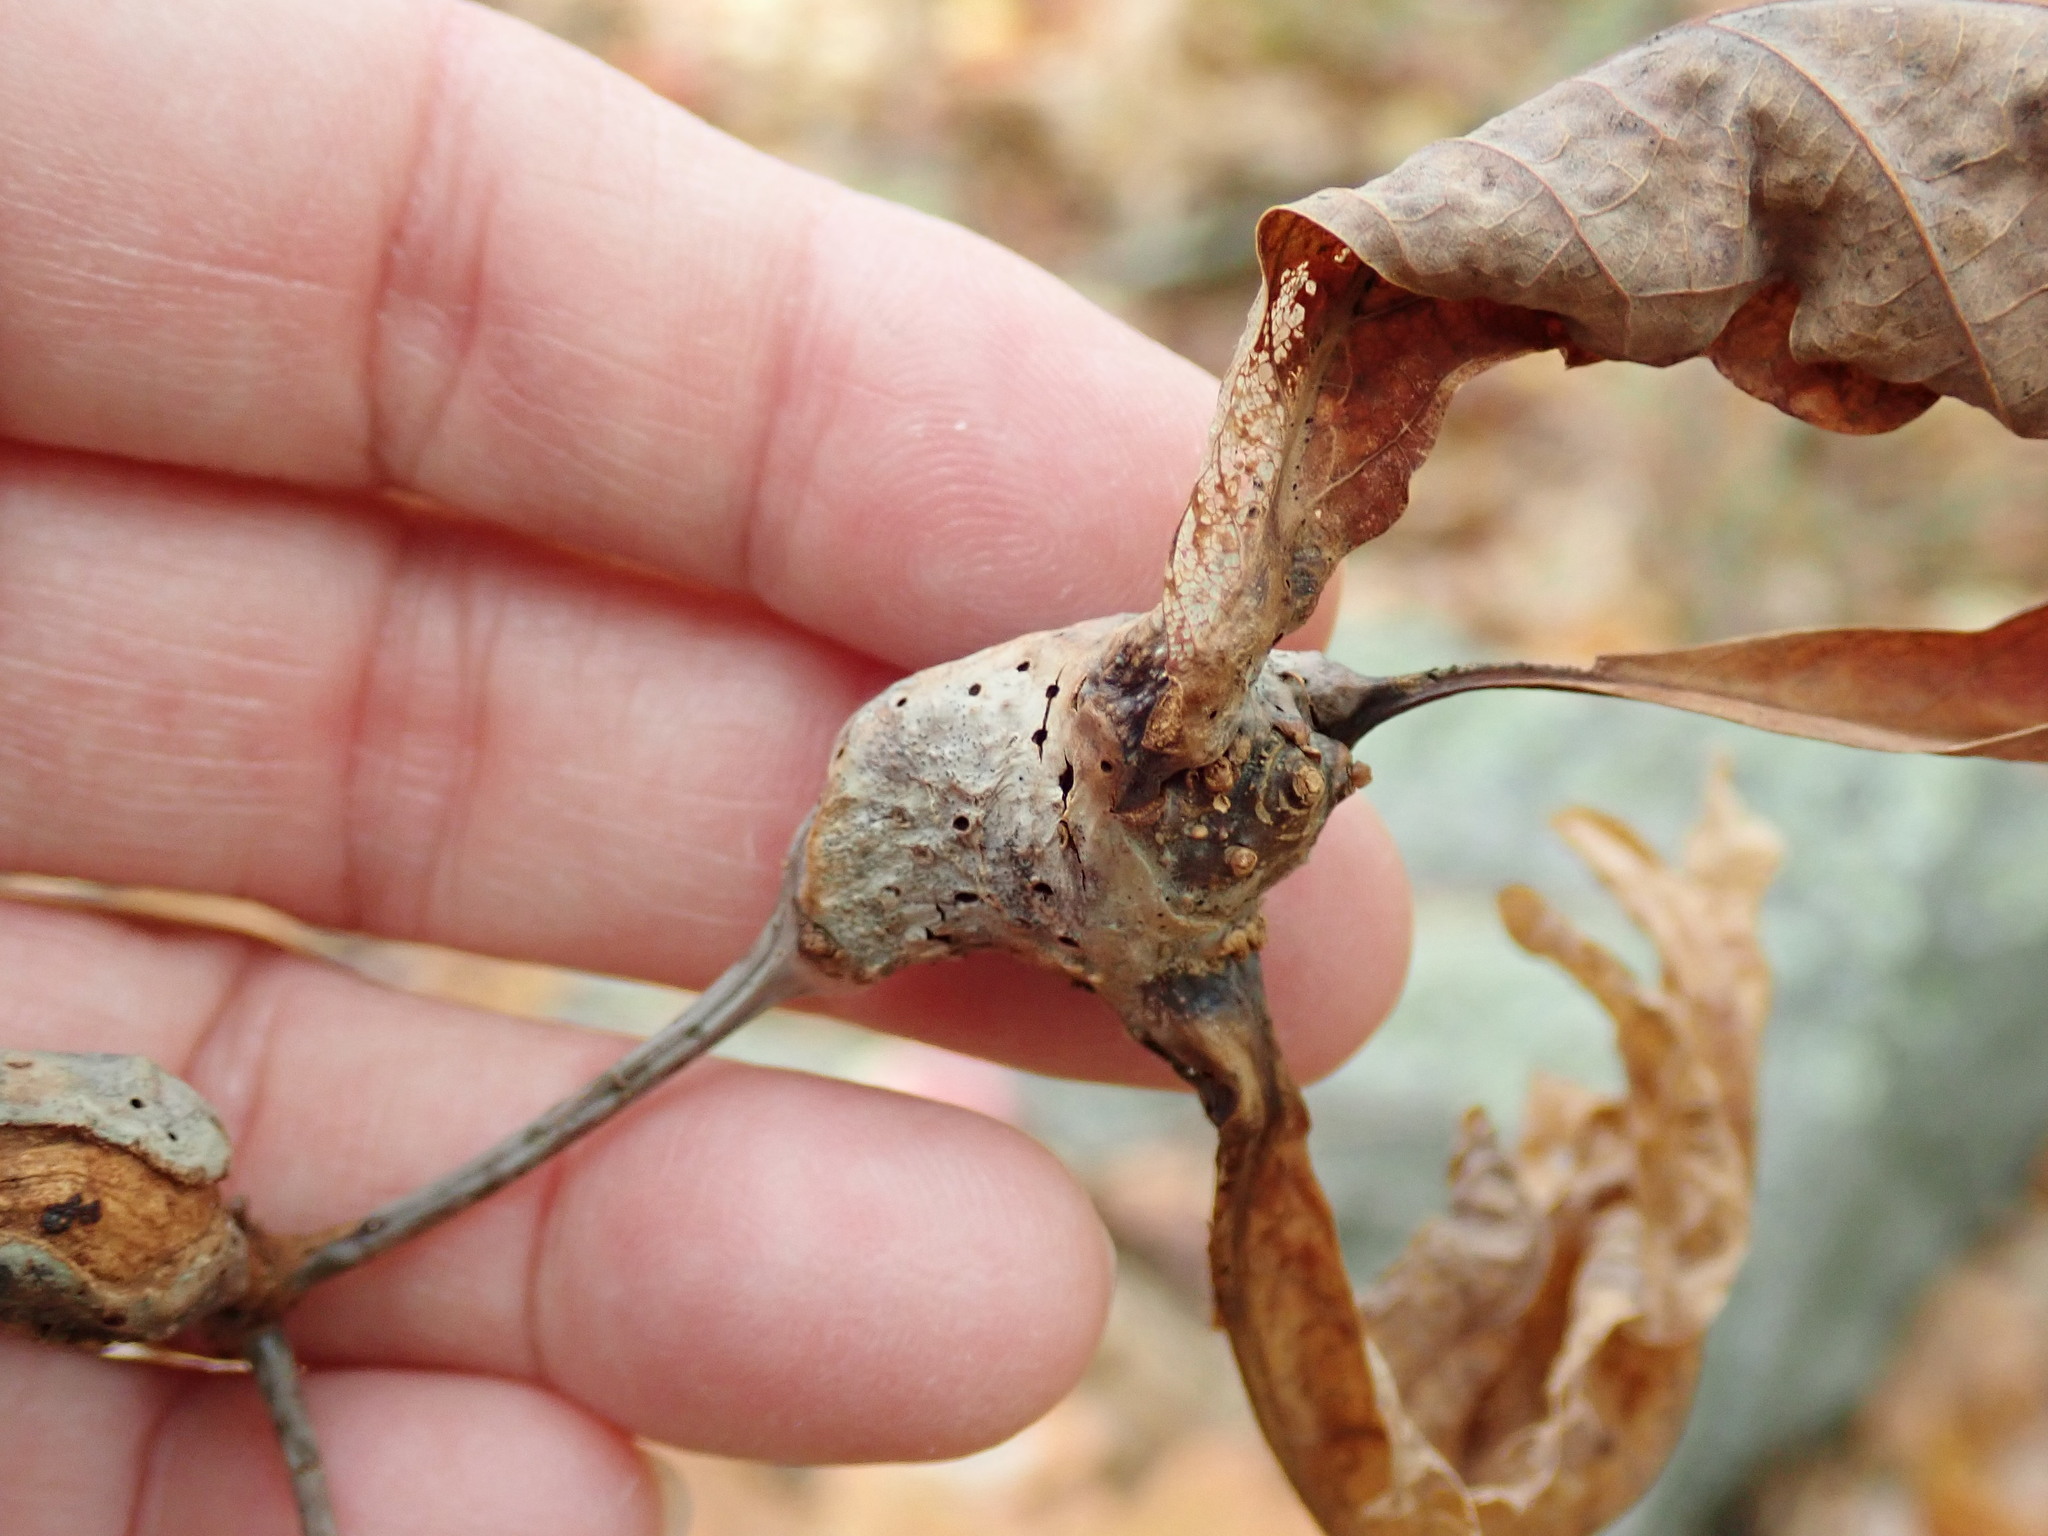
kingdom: Animalia
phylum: Arthropoda
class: Insecta
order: Hymenoptera
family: Cynipidae
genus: Callirhytis
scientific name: Callirhytis clavula
